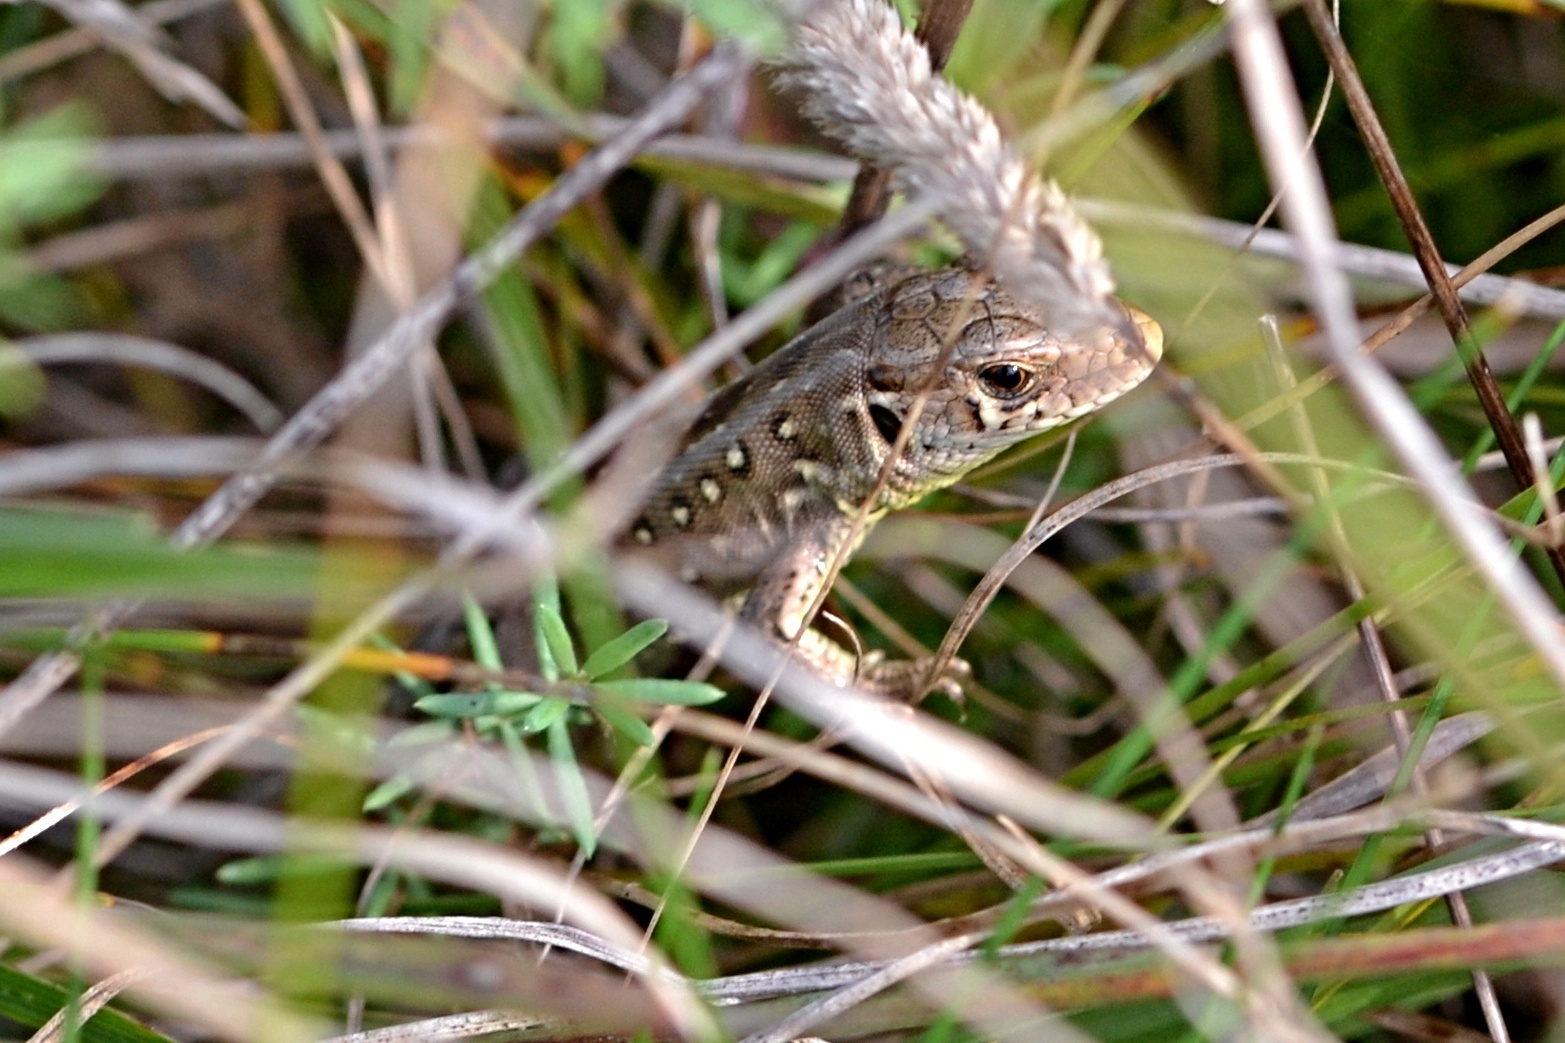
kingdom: Animalia
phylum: Chordata
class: Squamata
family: Lacertidae
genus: Lacerta
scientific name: Lacerta agilis
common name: Sand lizard
